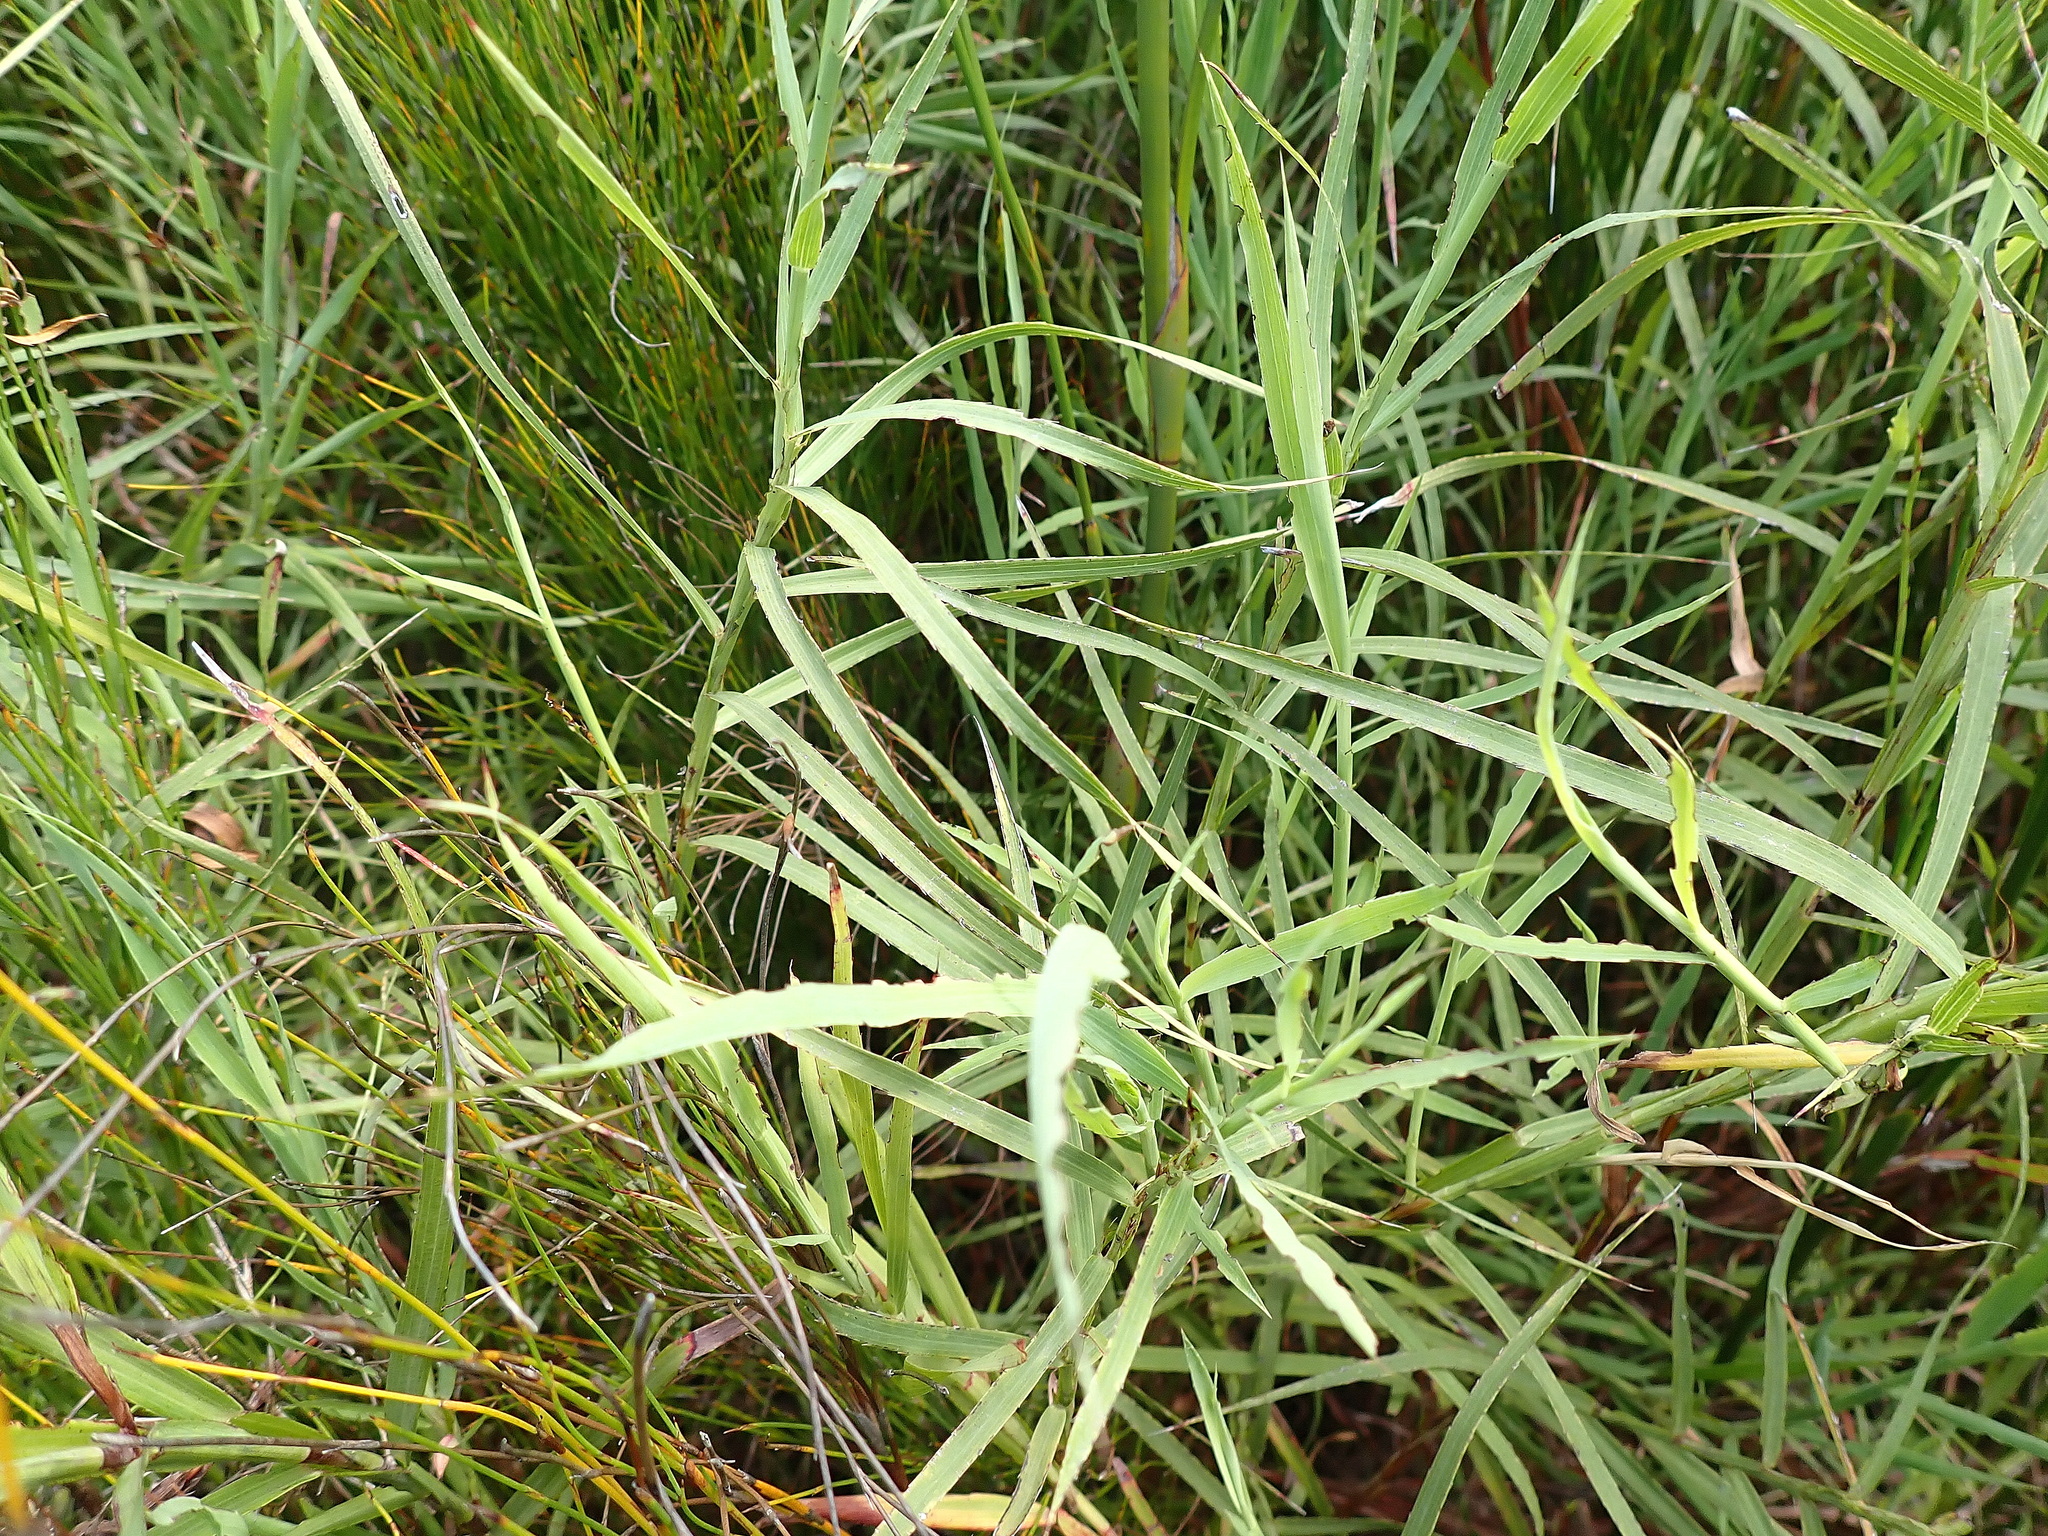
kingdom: Plantae
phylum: Tracheophyta
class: Magnoliopsida
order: Rosales
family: Rosaceae
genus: Cliffortia
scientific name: Cliffortia graminea
